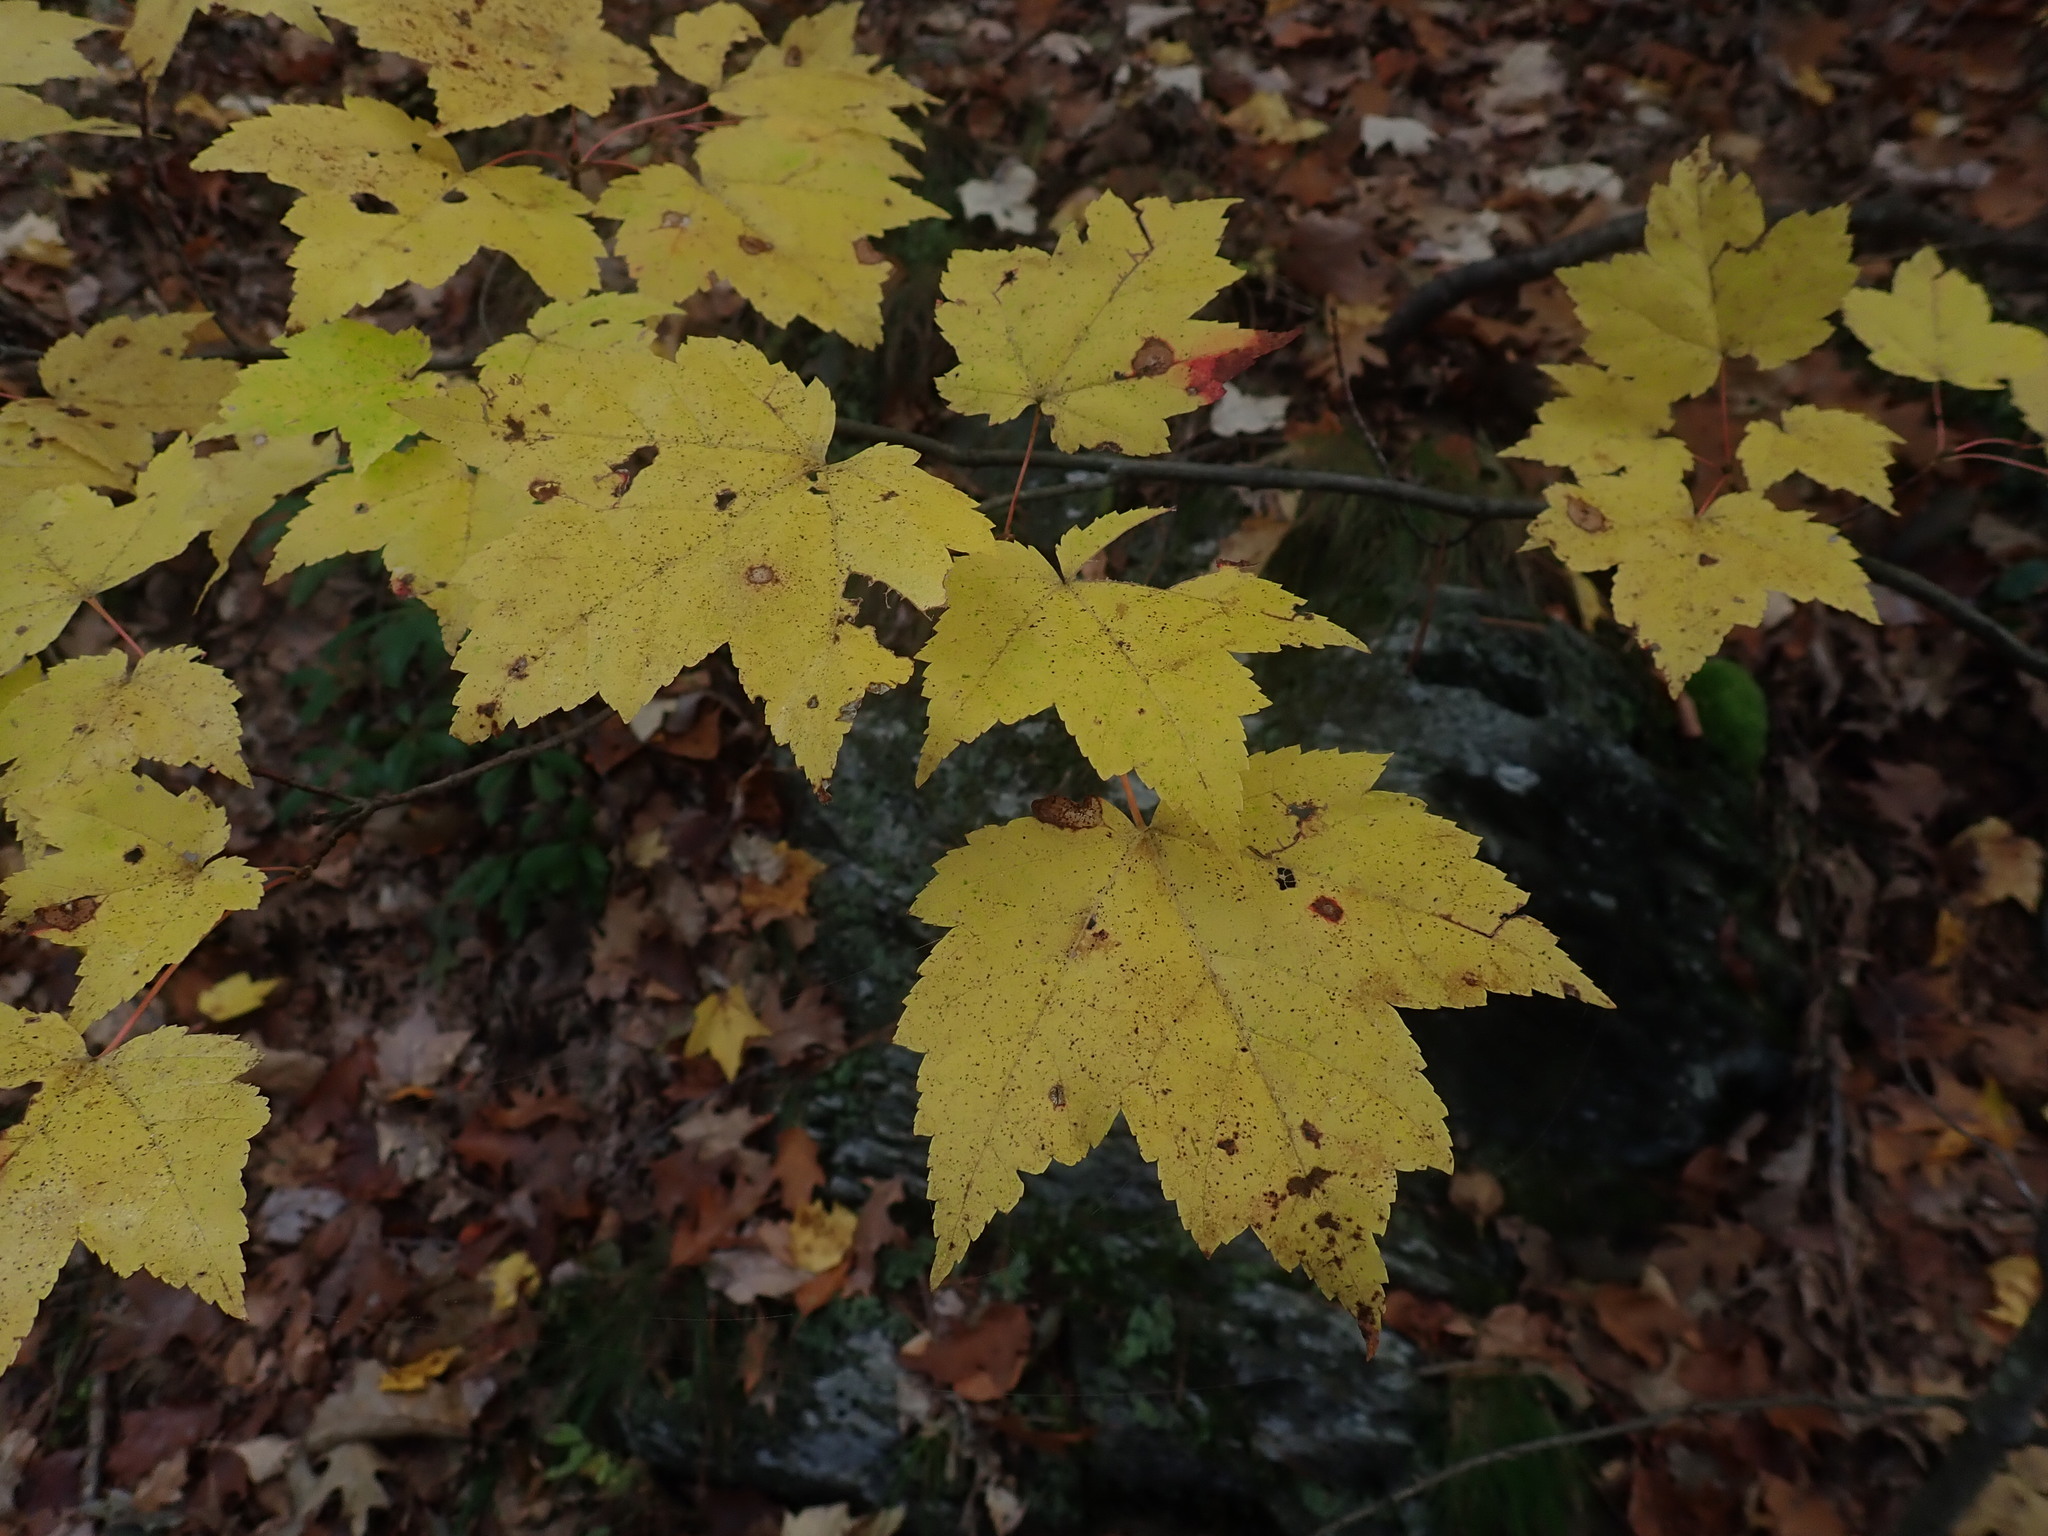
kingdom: Plantae
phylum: Tracheophyta
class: Magnoliopsida
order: Sapindales
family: Sapindaceae
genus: Acer
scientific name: Acer rubrum
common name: Red maple
